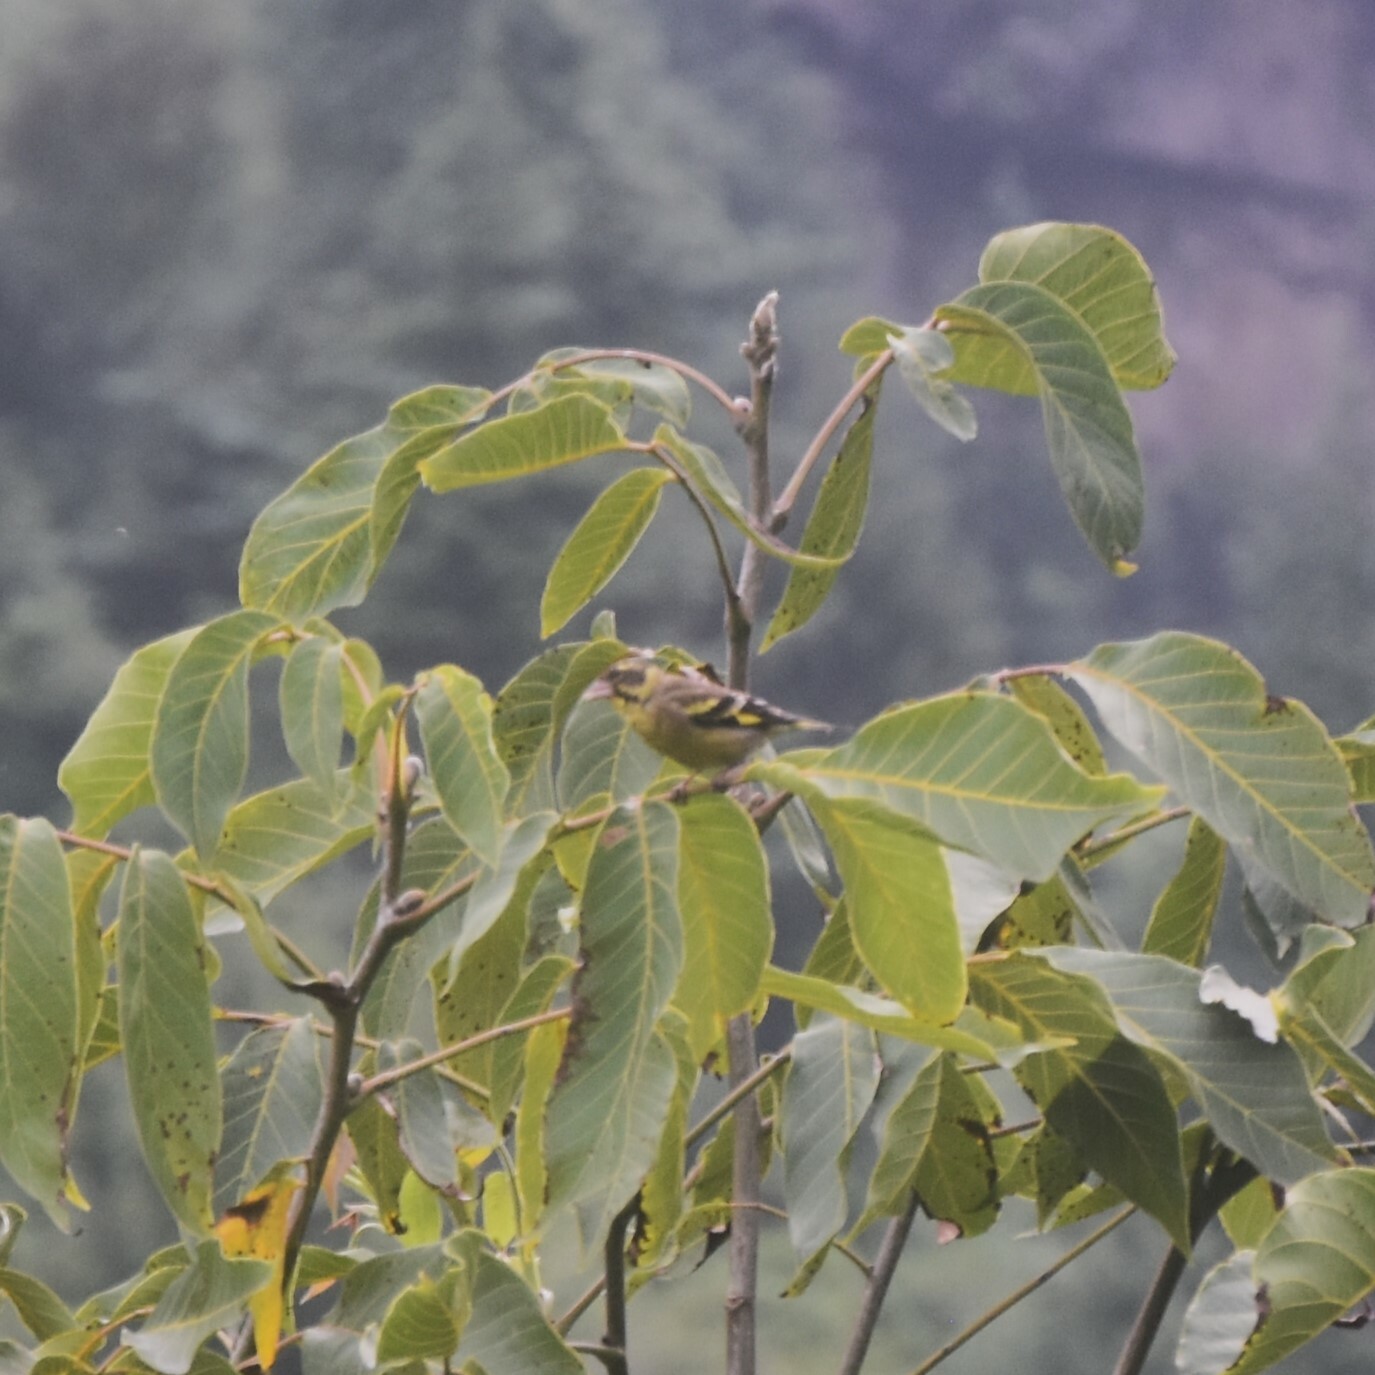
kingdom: Animalia
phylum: Chordata
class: Aves
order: Passeriformes
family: Fringillidae
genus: Chloris
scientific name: Chloris spinoides
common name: Yellow-breasted greenfinch
